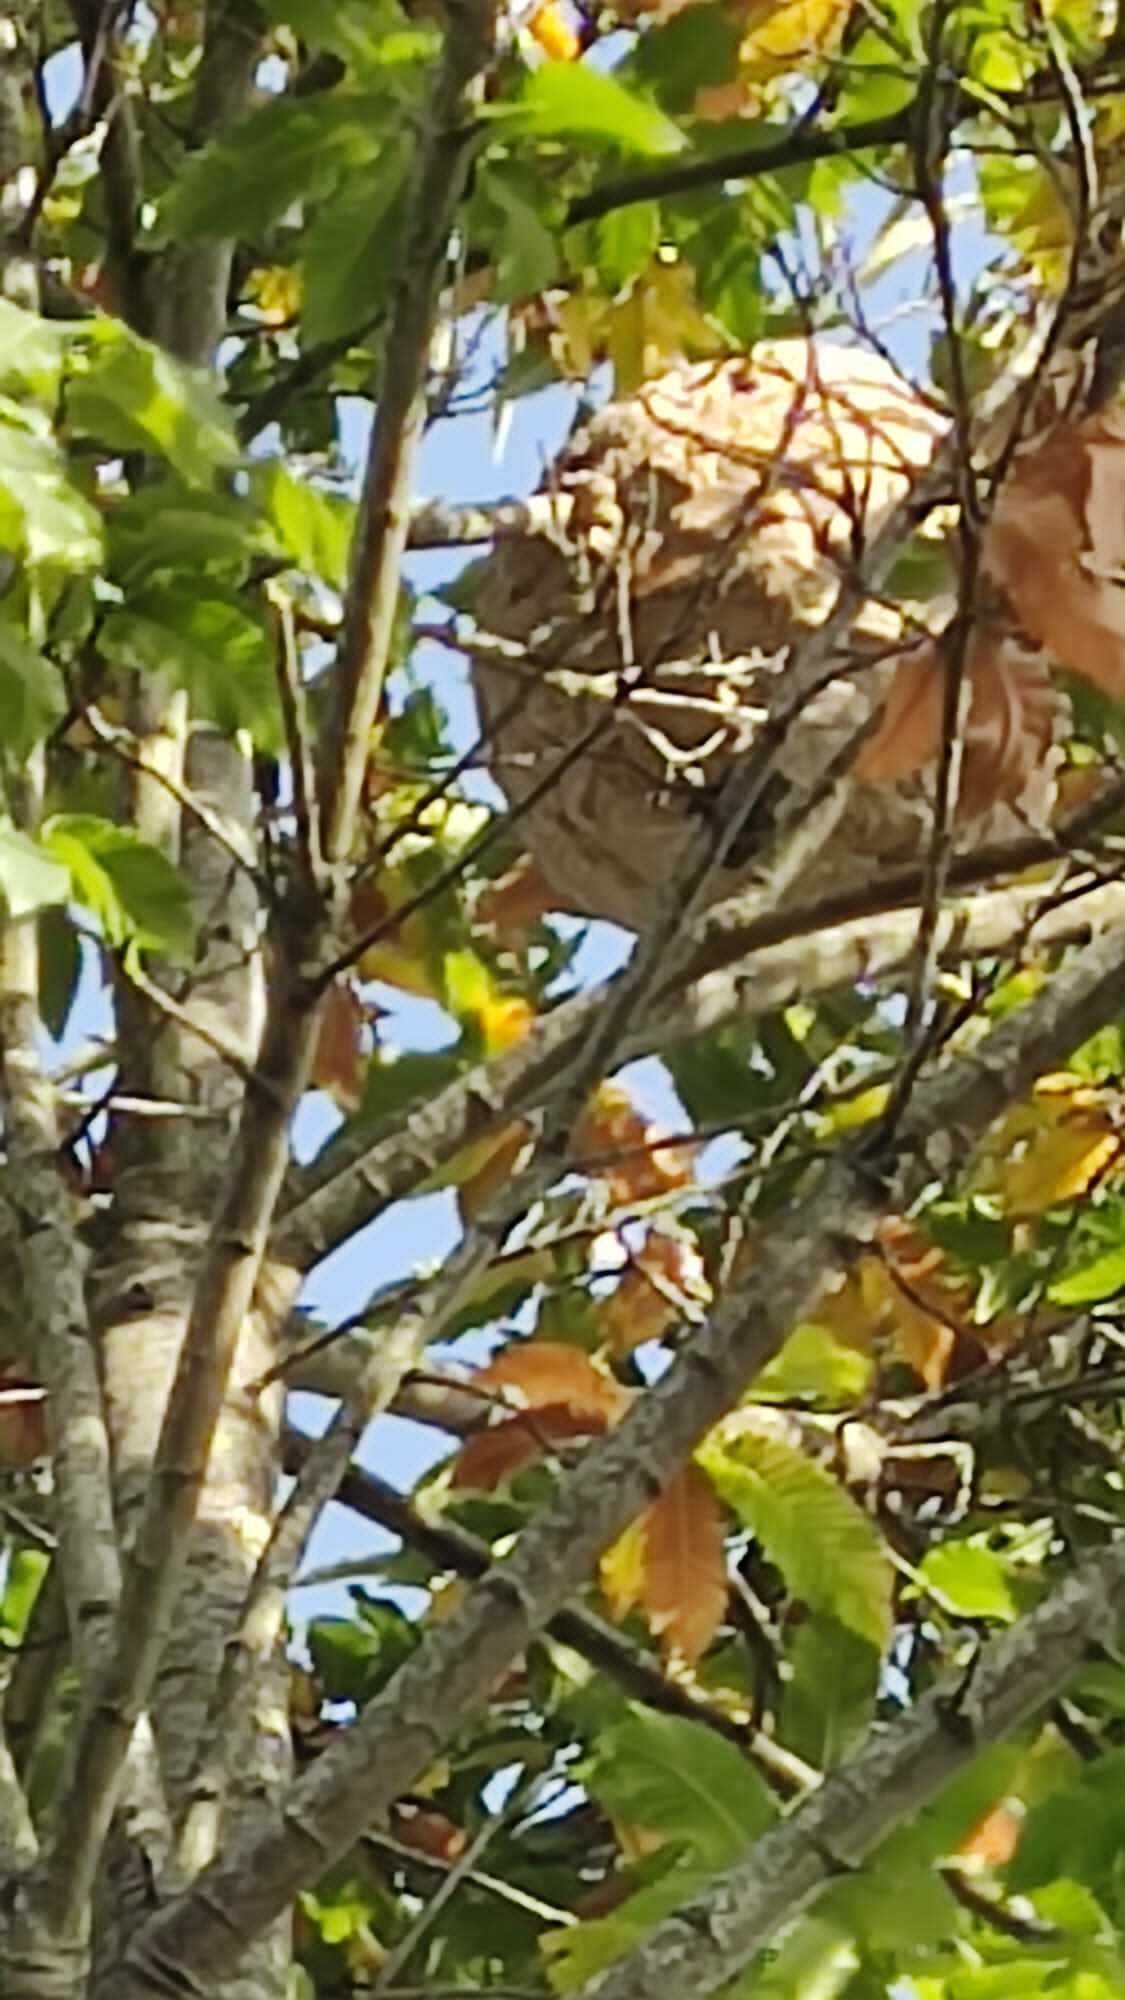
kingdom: Animalia
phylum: Arthropoda
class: Insecta
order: Hymenoptera
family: Vespidae
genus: Vespa
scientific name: Vespa velutina
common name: Asian hornet
